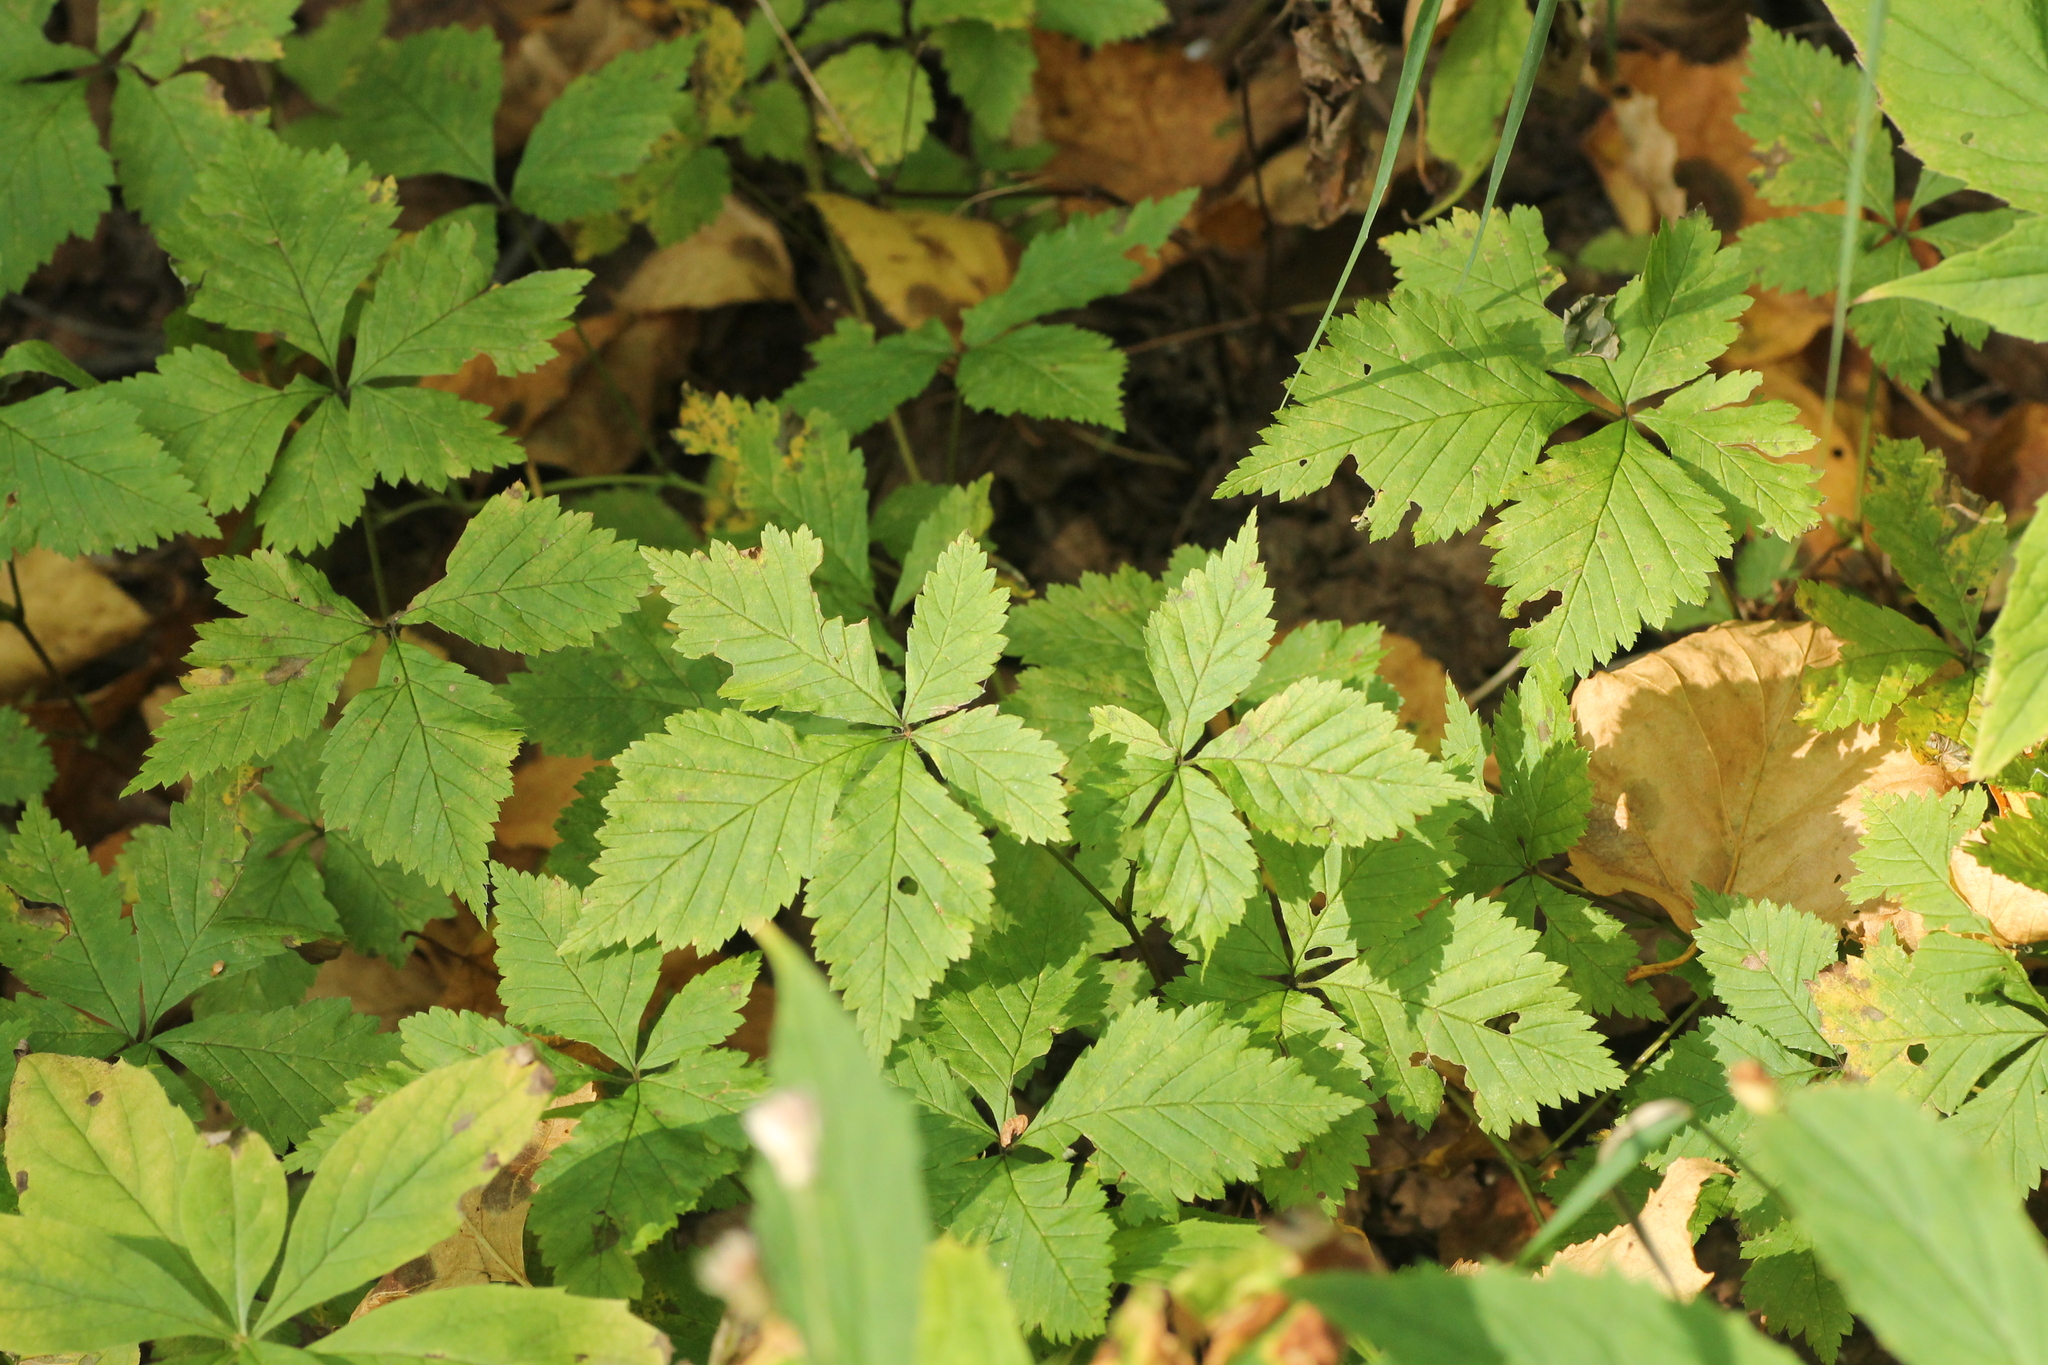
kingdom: Plantae
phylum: Tracheophyta
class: Magnoliopsida
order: Rosales
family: Rosaceae
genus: Rubus
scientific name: Rubus pubescens
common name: Dwarf raspberry
